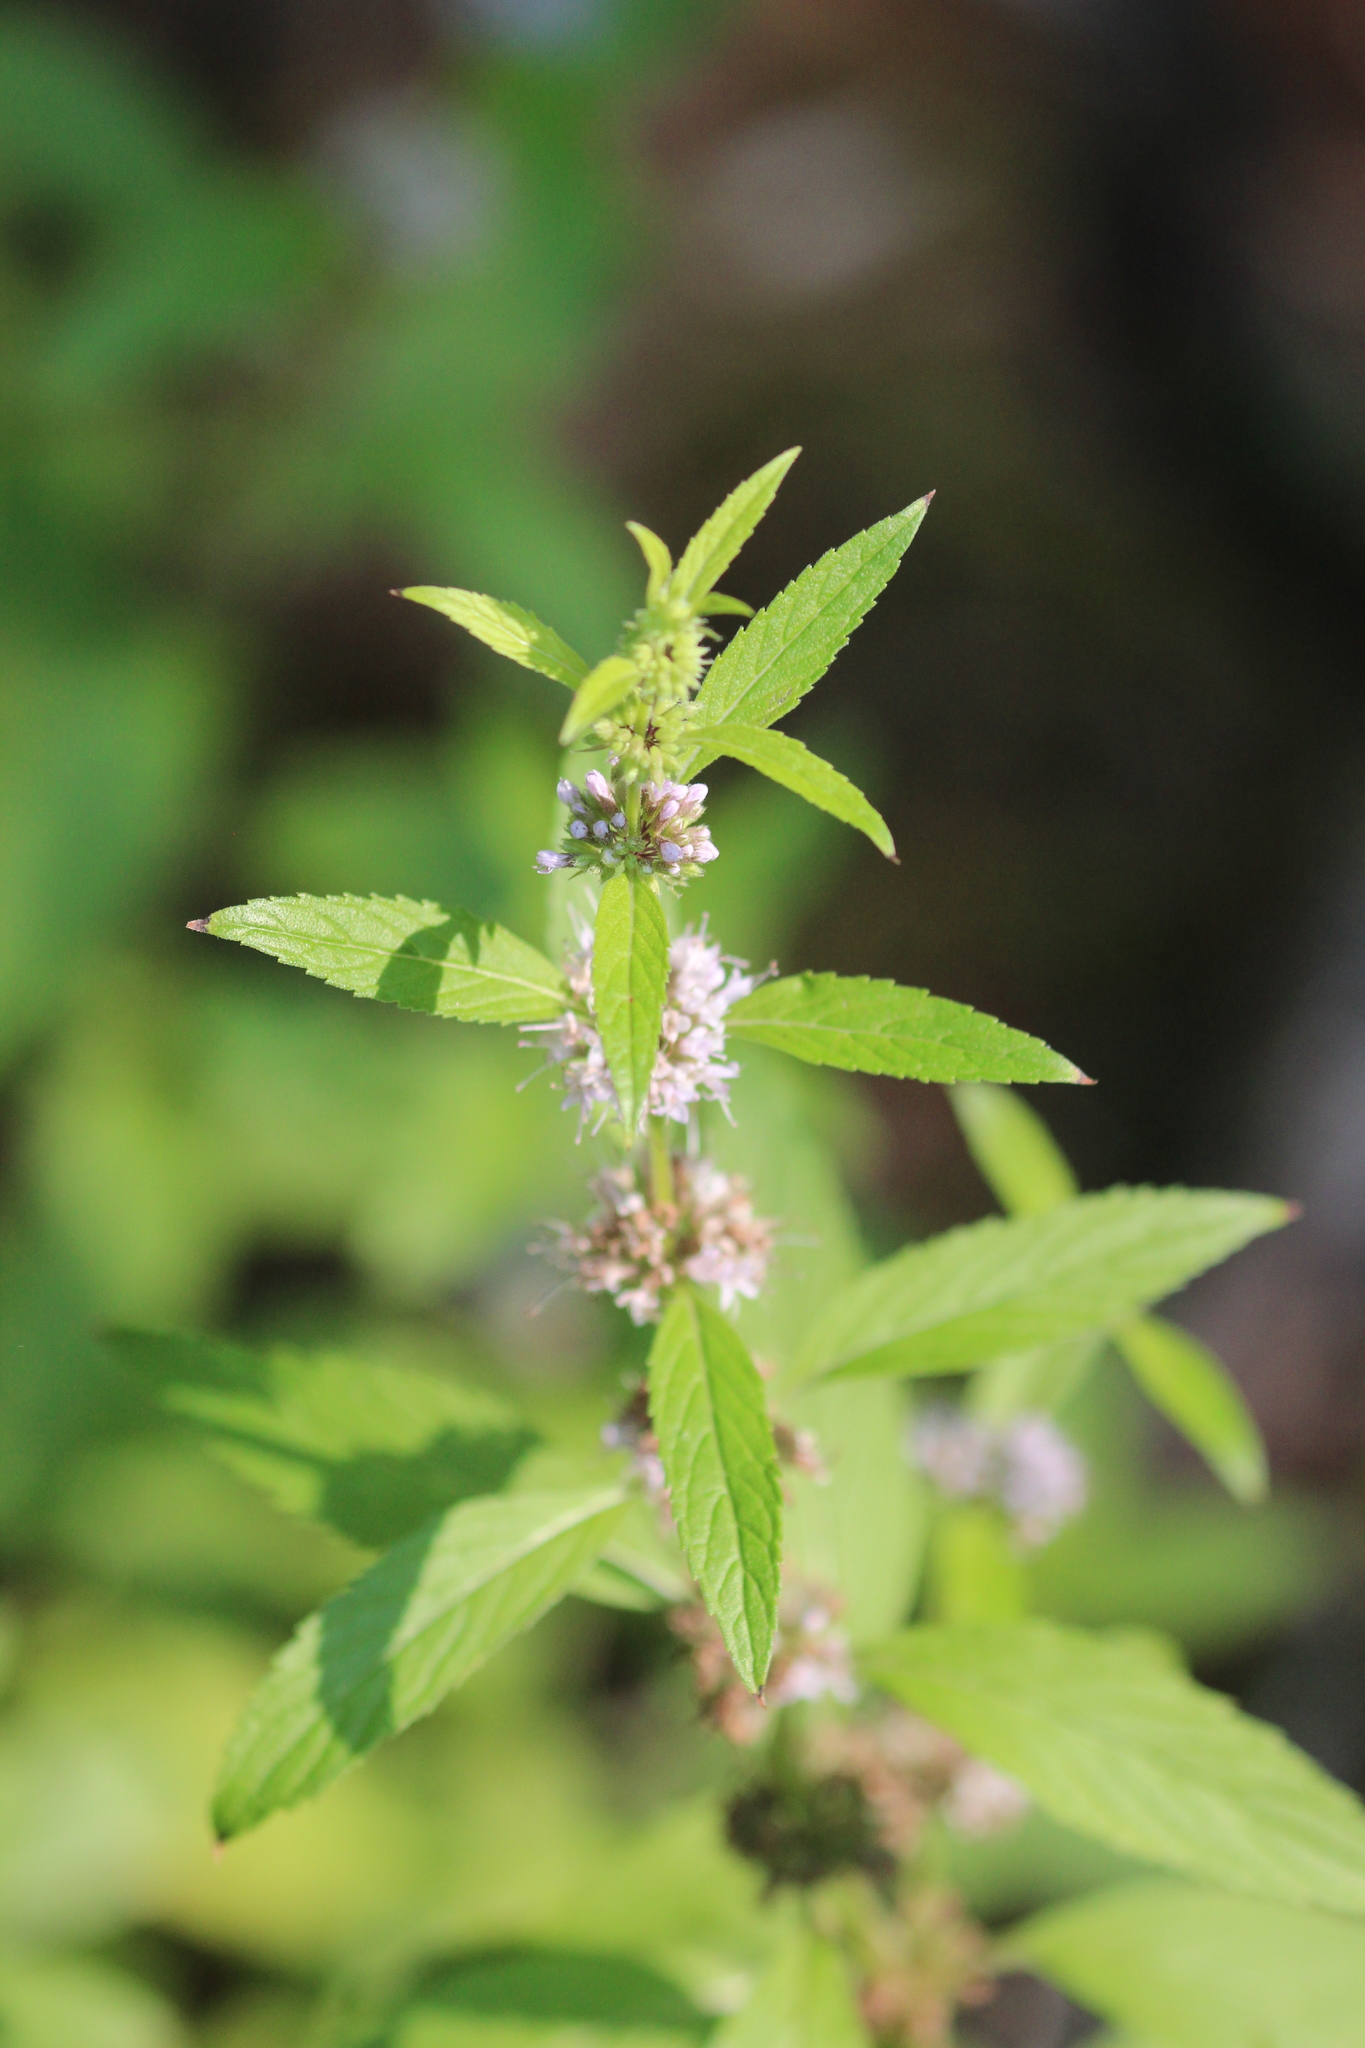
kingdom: Plantae
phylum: Tracheophyta
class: Magnoliopsida
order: Lamiales
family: Lamiaceae
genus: Mentha
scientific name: Mentha canadensis
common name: American corn mint
